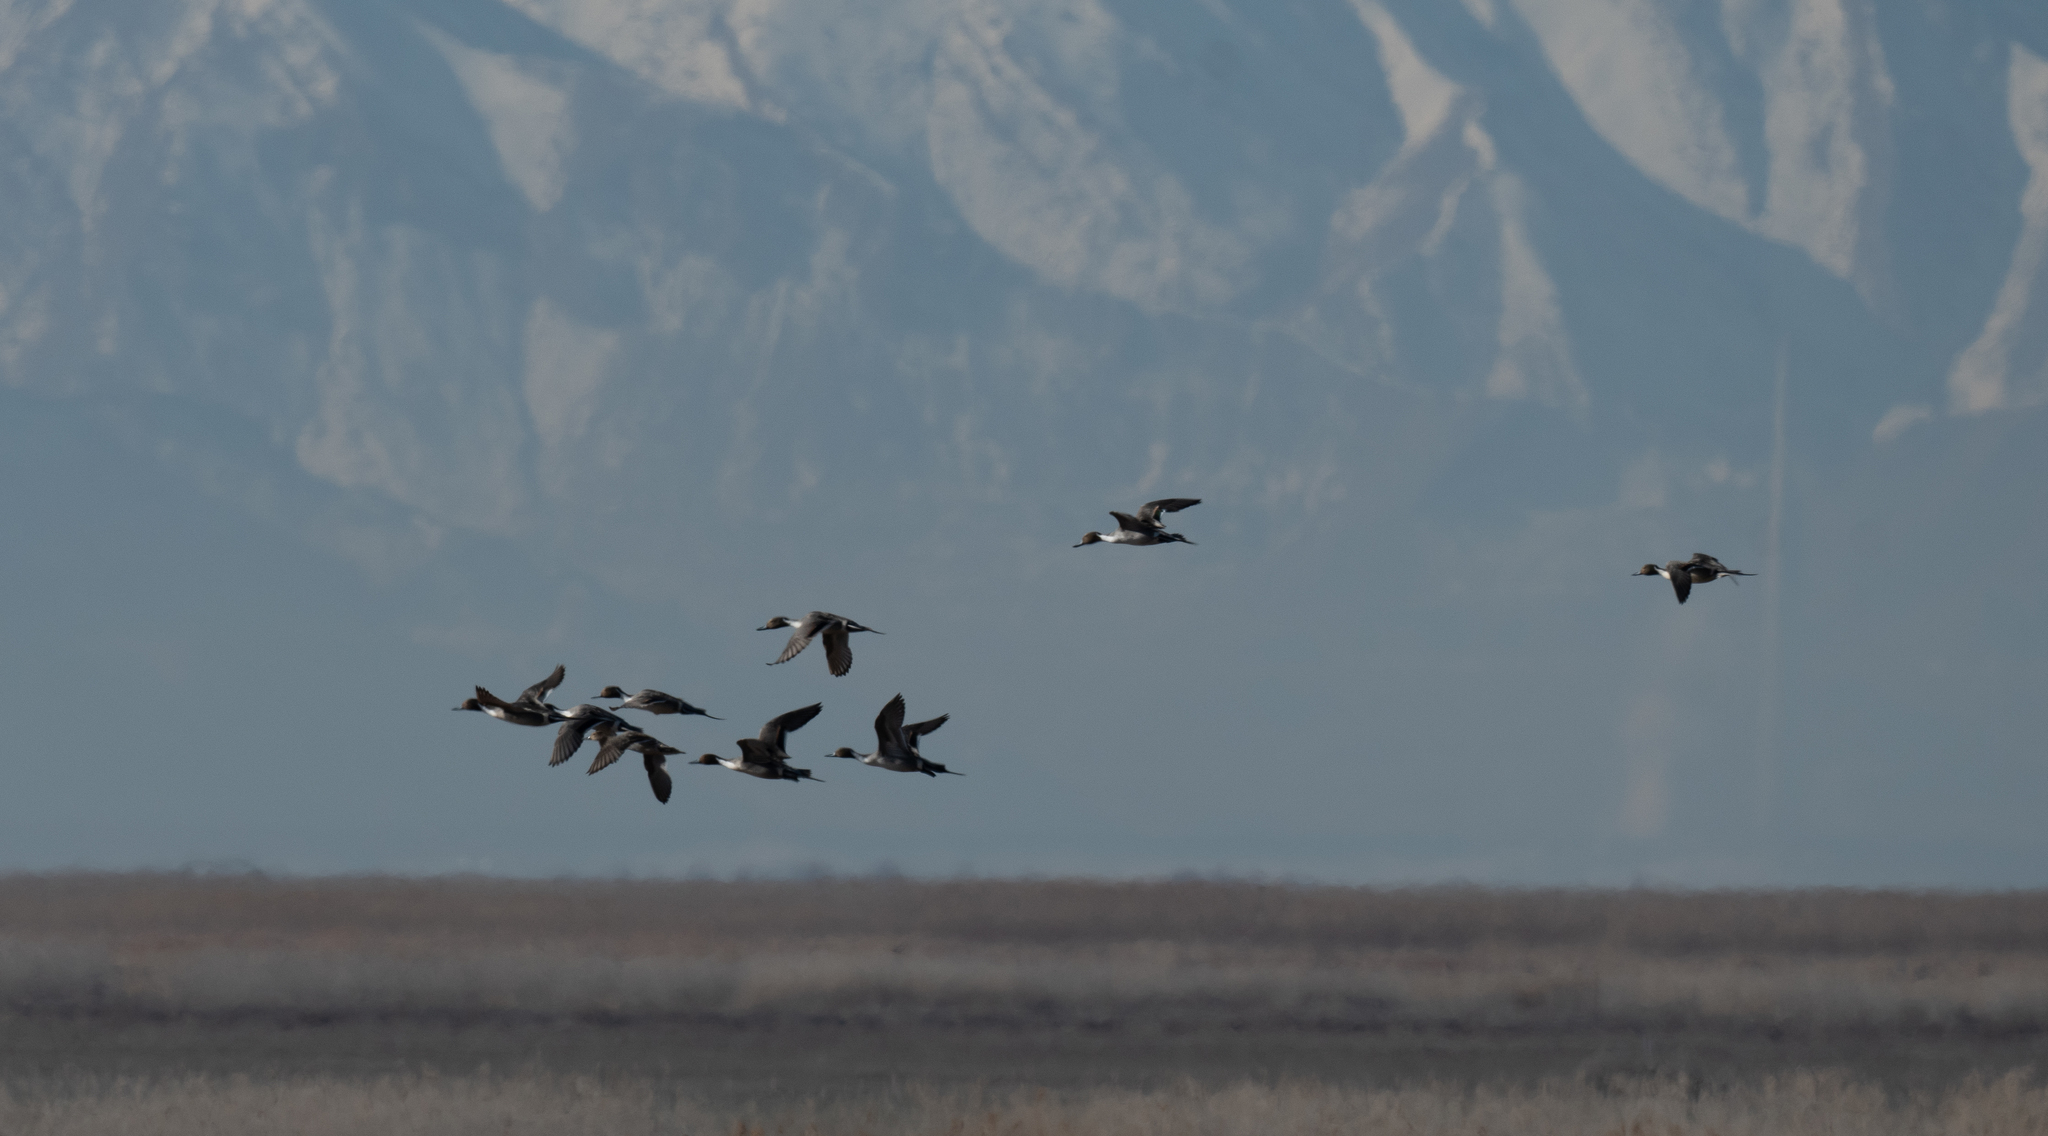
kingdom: Animalia
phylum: Chordata
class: Aves
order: Anseriformes
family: Anatidae
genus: Anas
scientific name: Anas acuta
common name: Northern pintail
